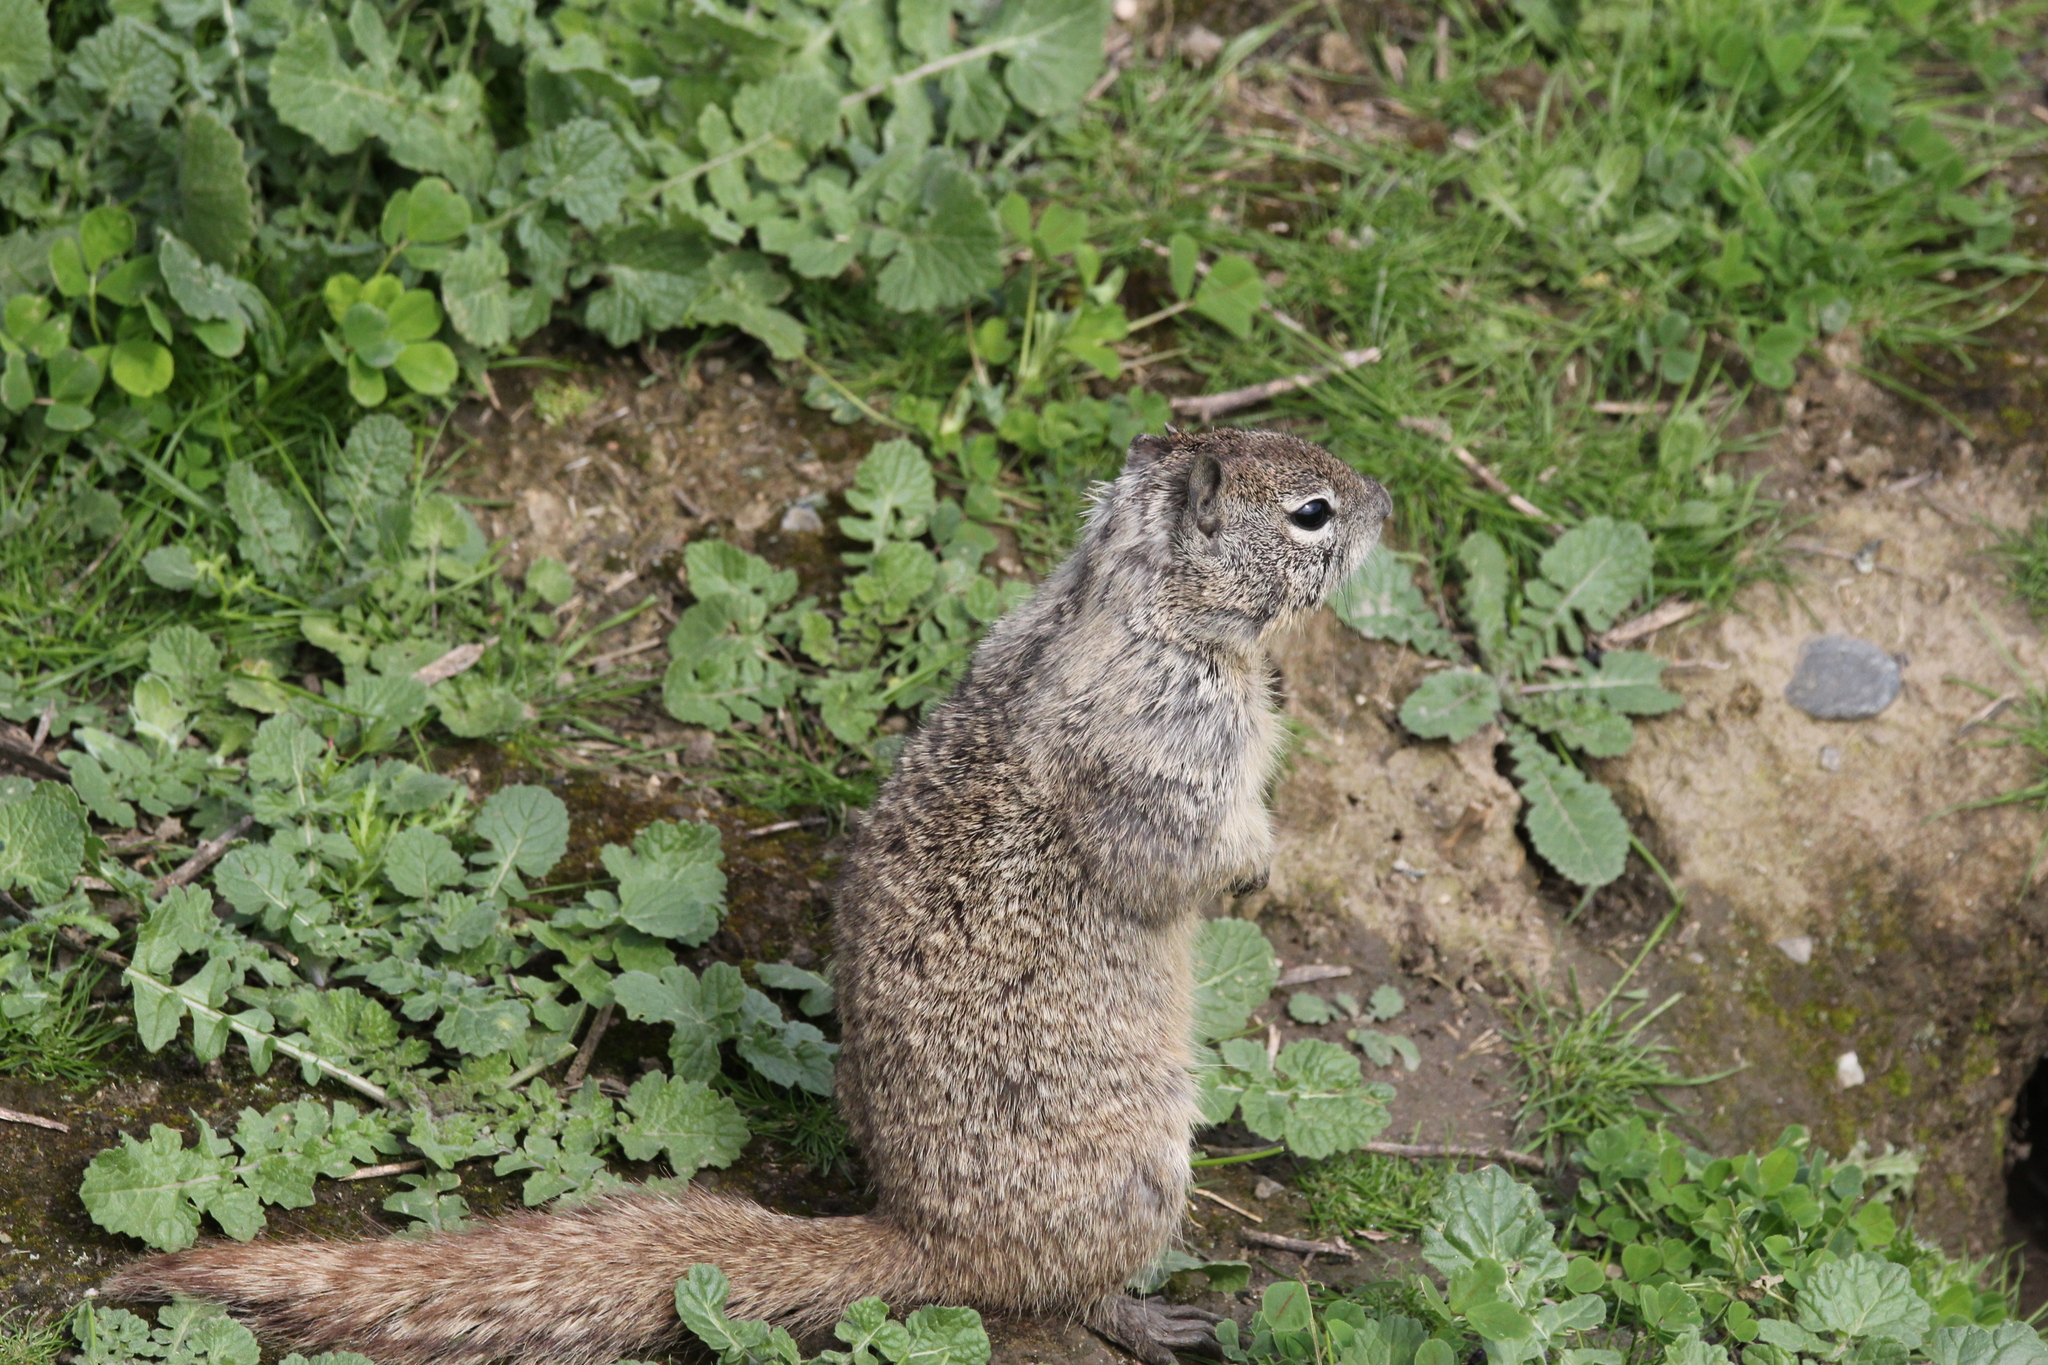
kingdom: Animalia
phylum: Chordata
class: Mammalia
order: Rodentia
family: Sciuridae
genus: Otospermophilus
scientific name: Otospermophilus beecheyi
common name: California ground squirrel
